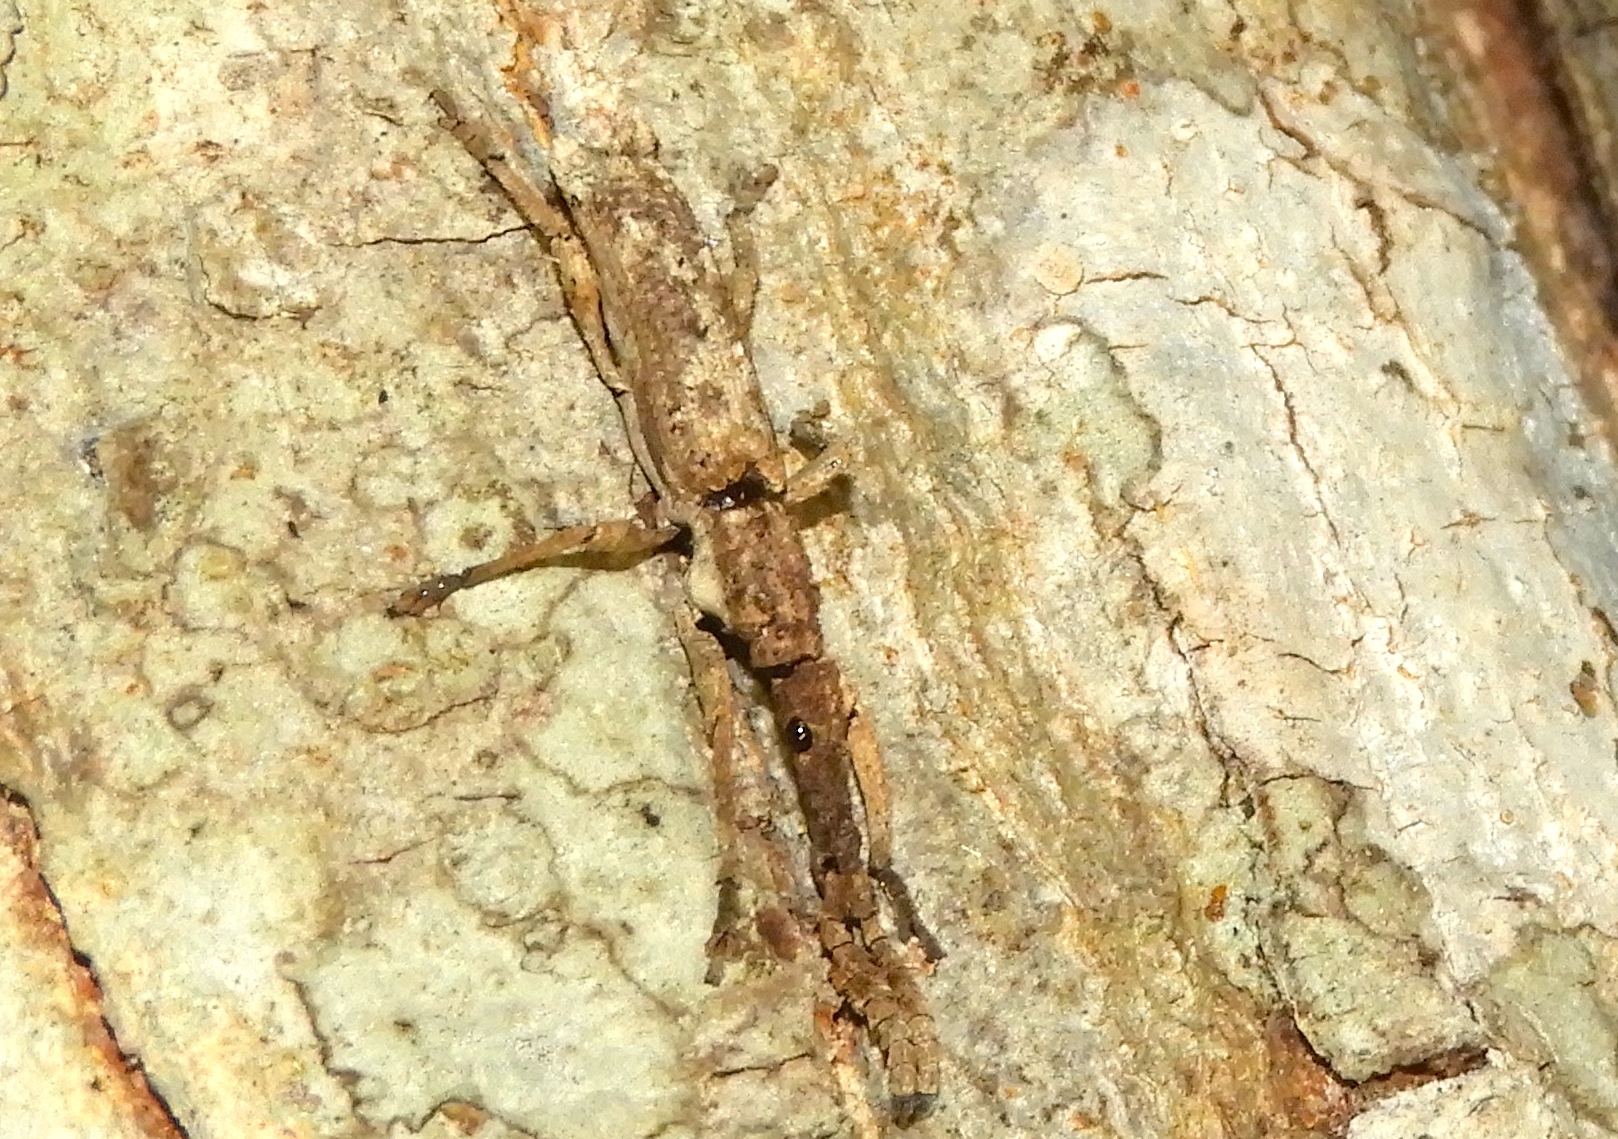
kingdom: Animalia
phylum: Arthropoda
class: Insecta
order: Coleoptera
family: Brentidae
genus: Ulocerus
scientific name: Ulocerus mexicanus
